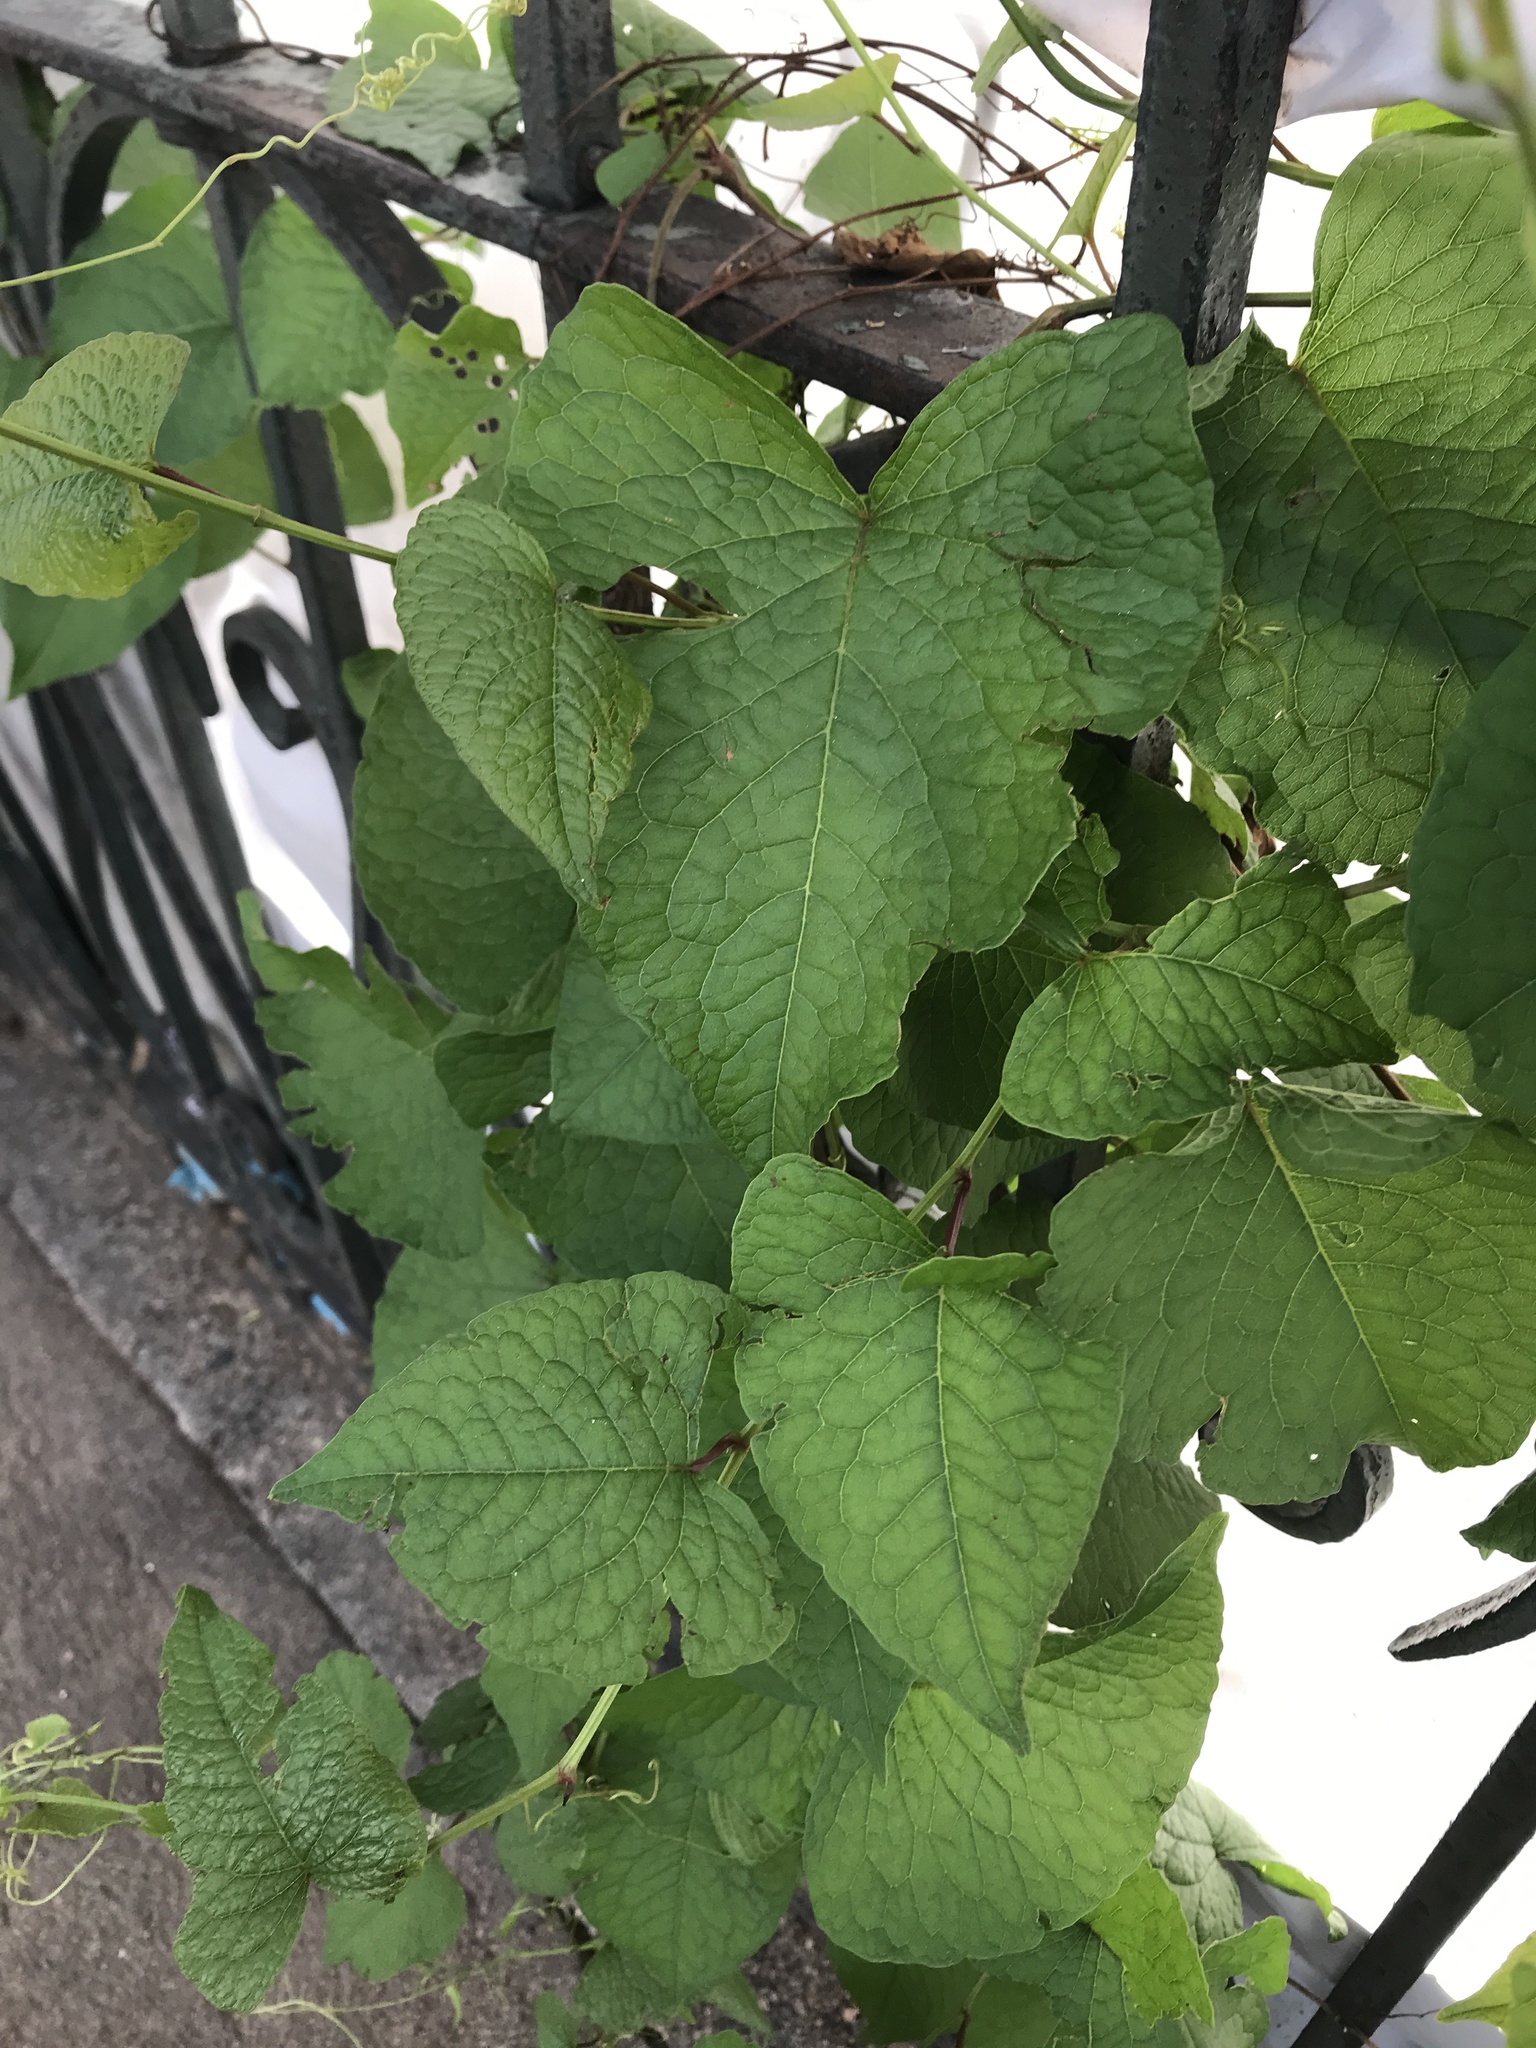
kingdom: Plantae
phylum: Tracheophyta
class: Magnoliopsida
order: Caryophyllales
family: Polygonaceae
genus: Antigonon
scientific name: Antigonon leptopus
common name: Coral vine
